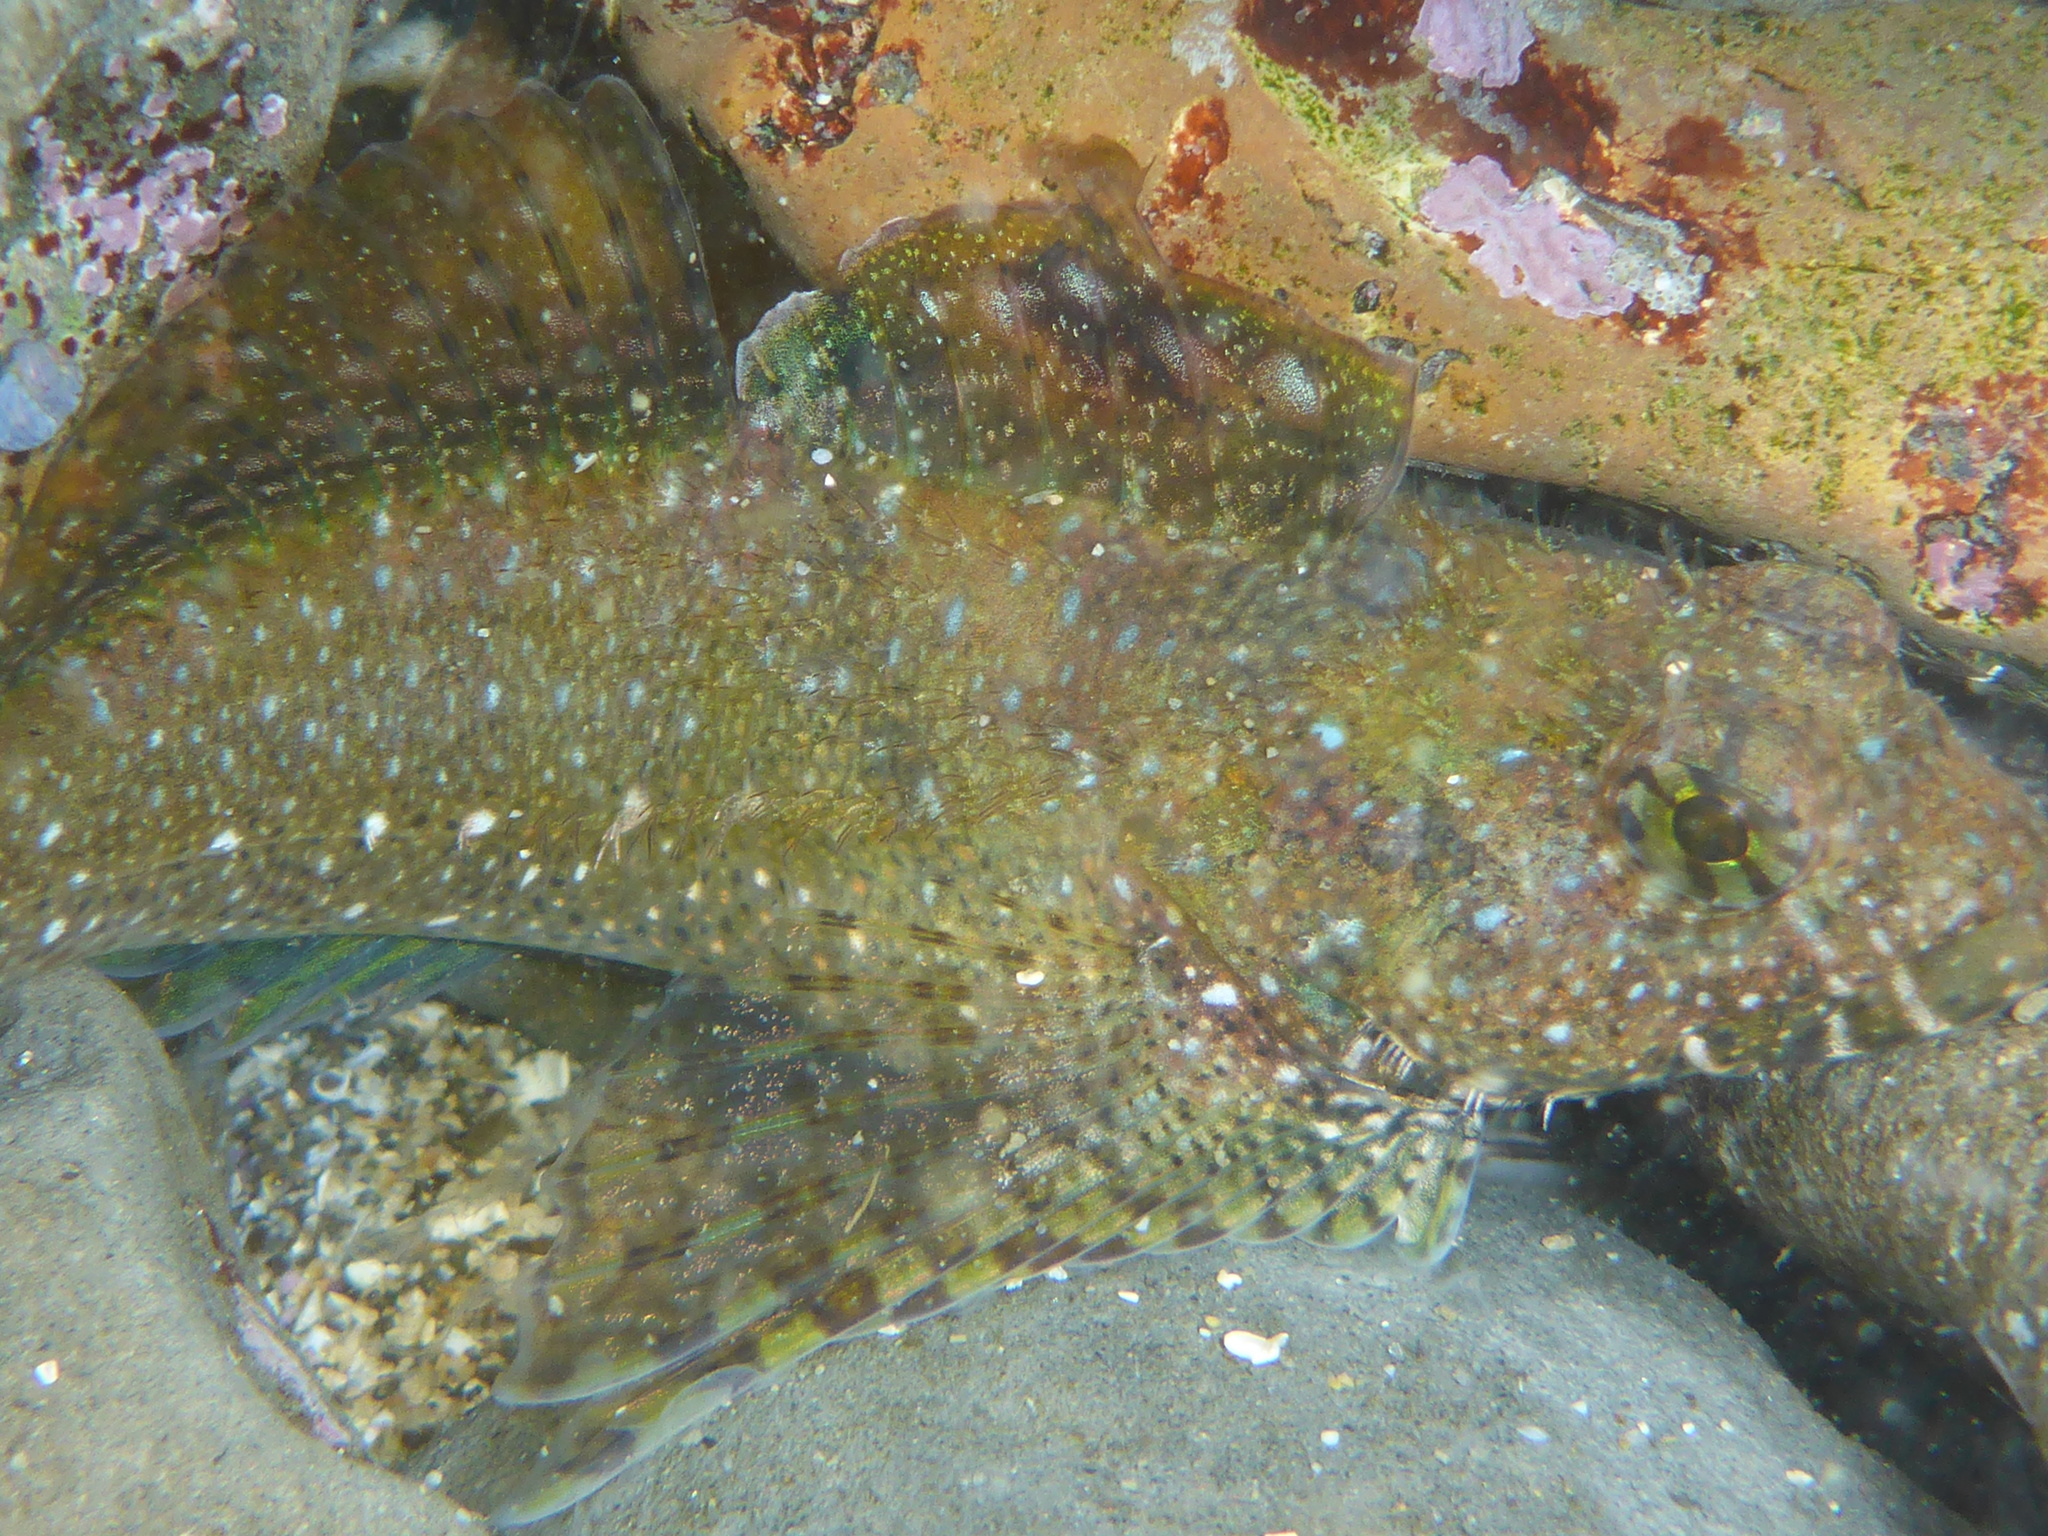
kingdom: Animalia
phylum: Chordata
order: Scorpaeniformes
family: Cottidae
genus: Clinocottus
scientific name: Clinocottus analis
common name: Woolly sculpin
